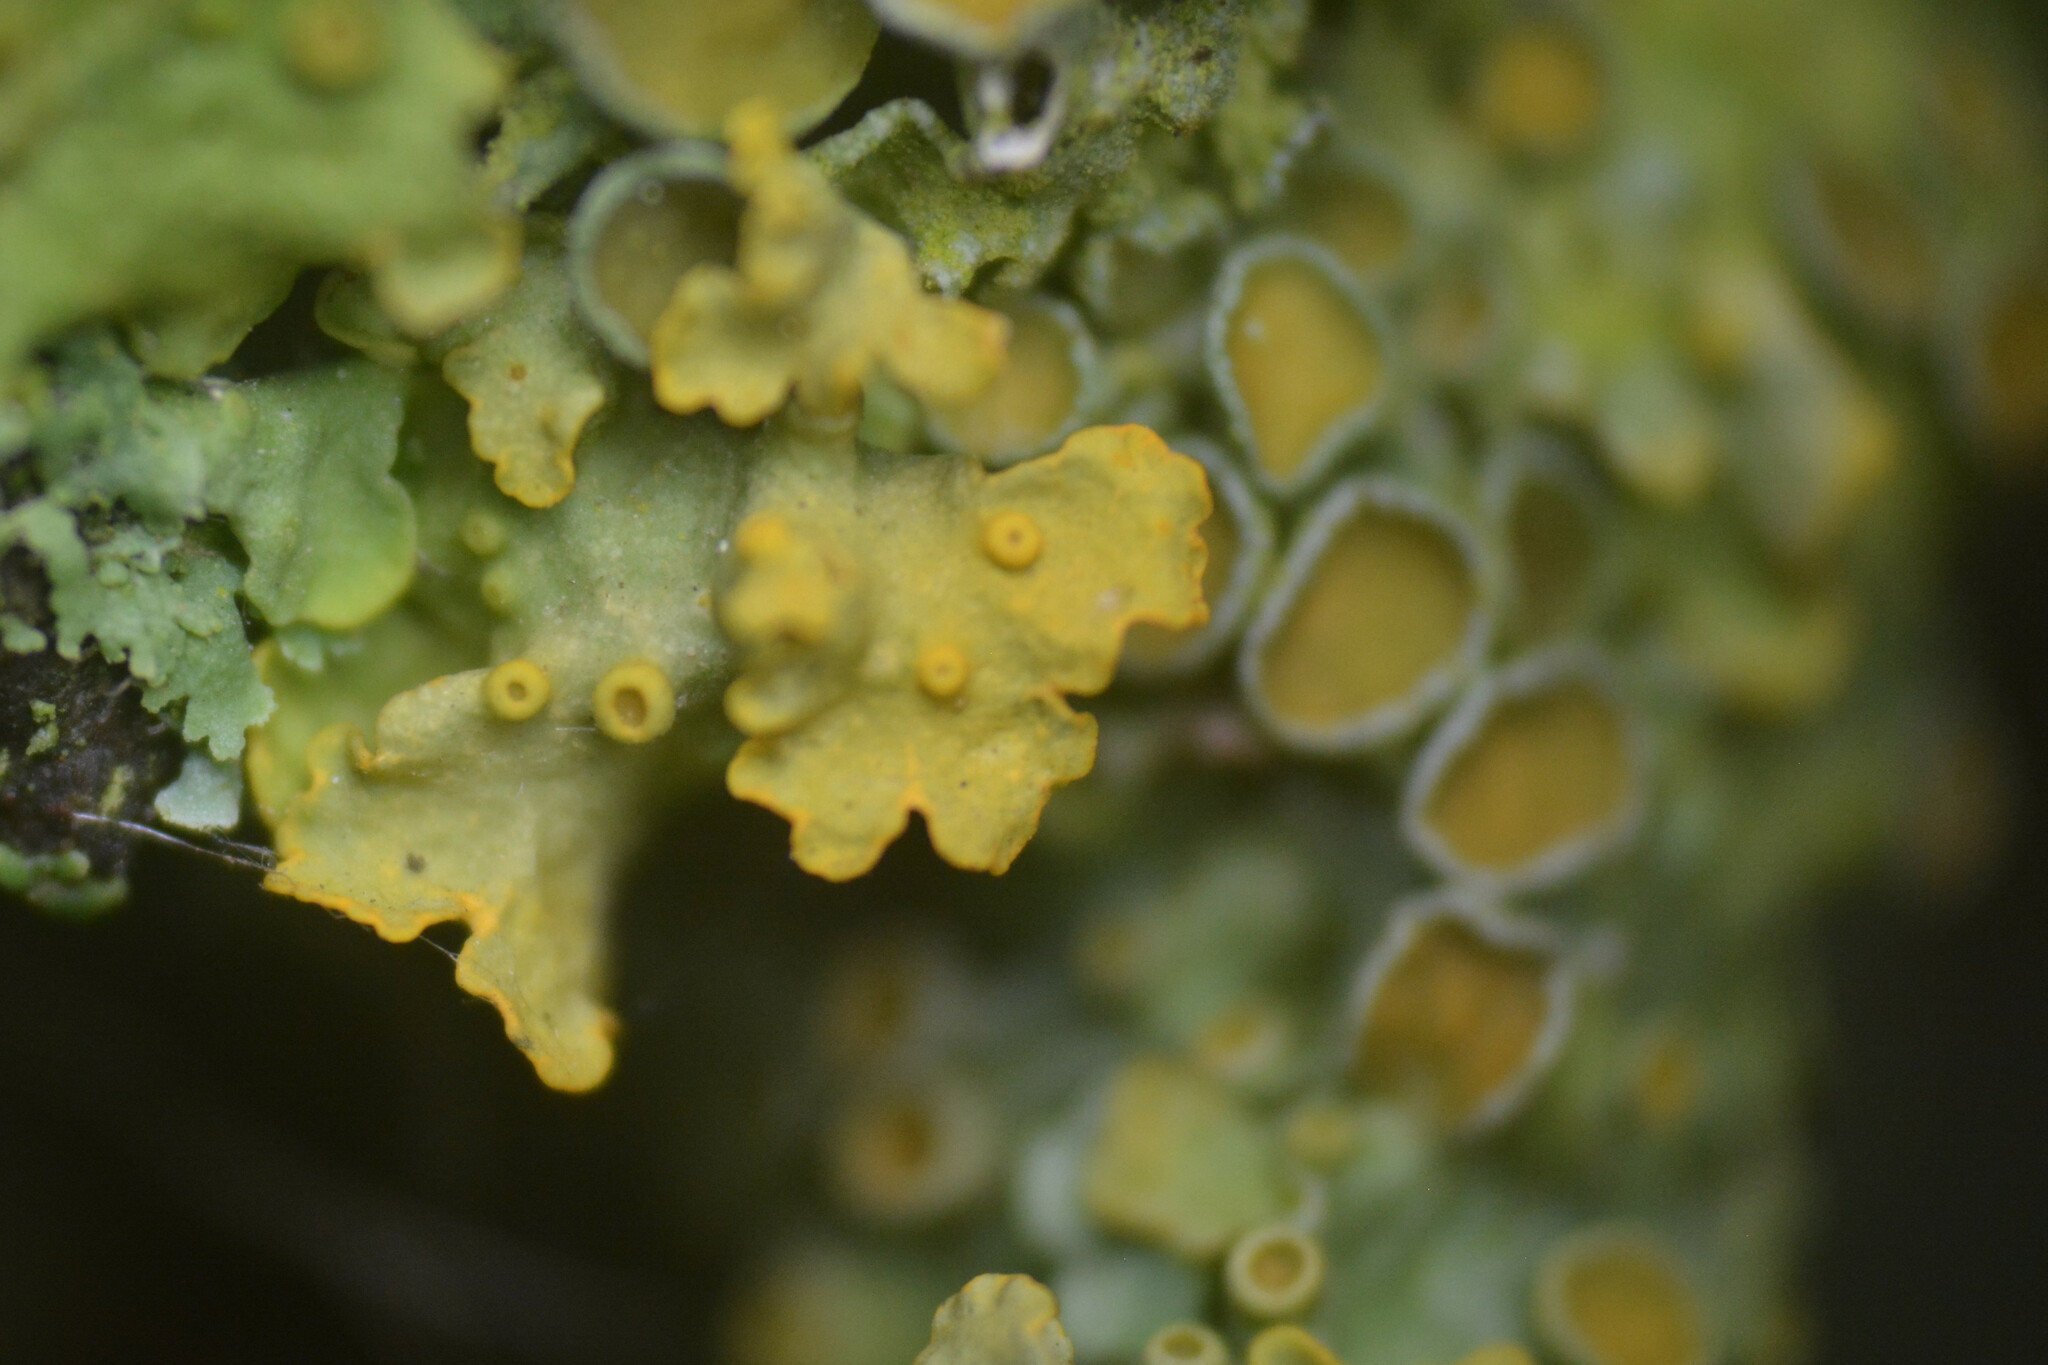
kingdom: Fungi
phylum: Ascomycota
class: Lecanoromycetes
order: Teloschistales
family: Teloschistaceae
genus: Xanthoria
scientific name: Xanthoria parietina
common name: Common orange lichen
